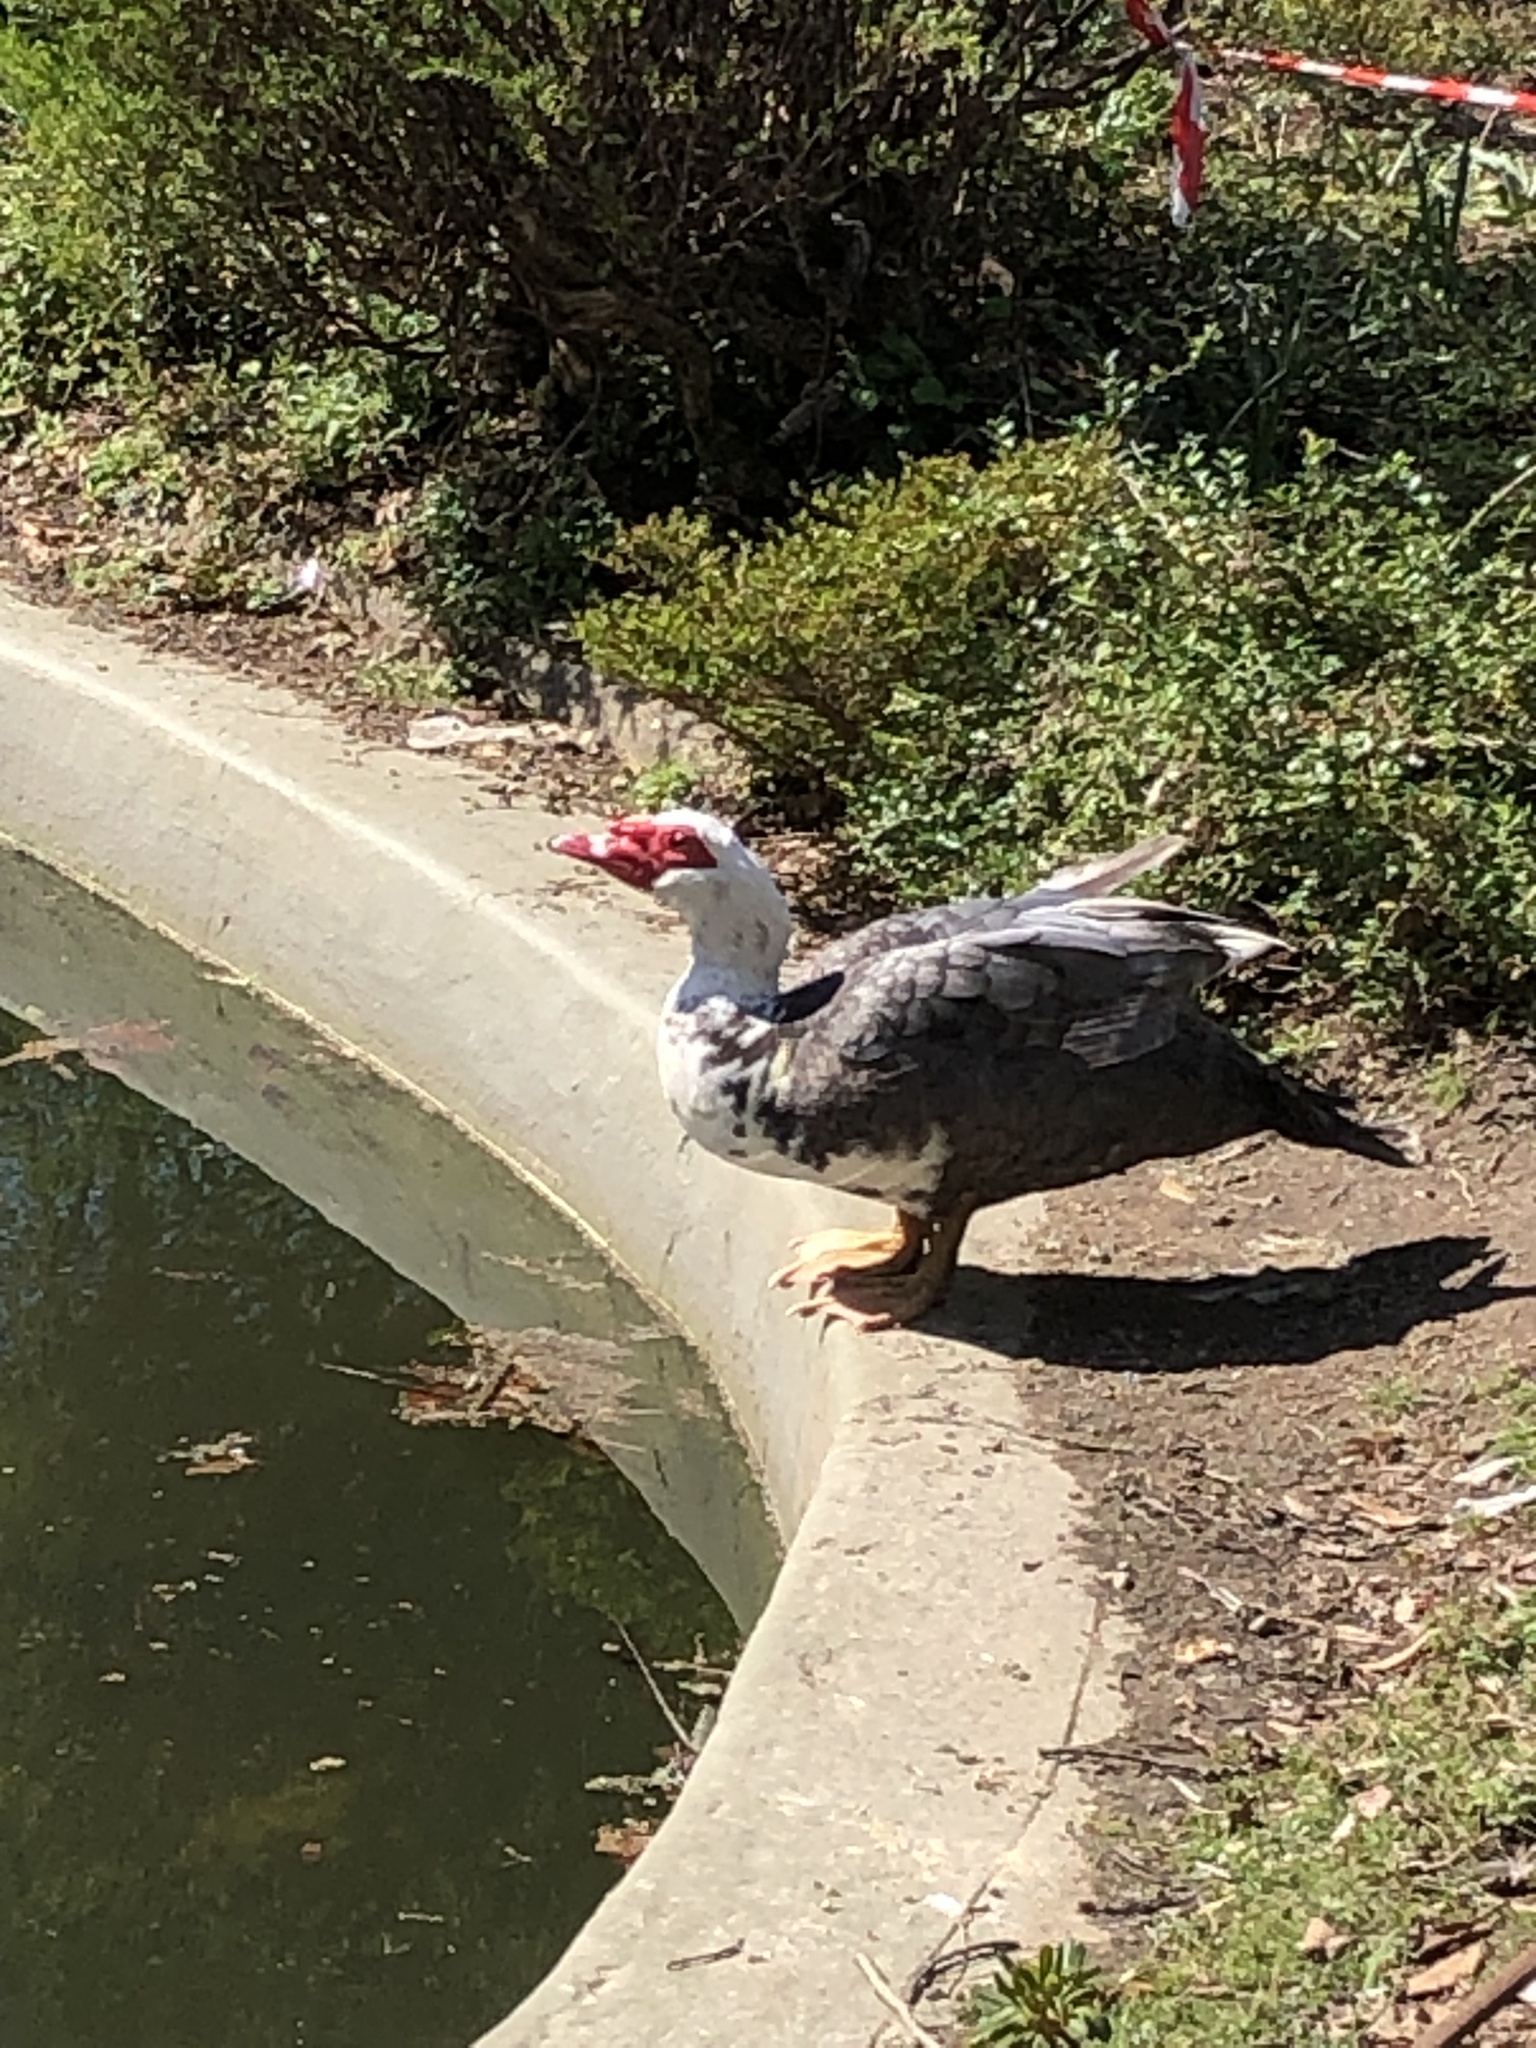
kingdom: Animalia
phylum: Chordata
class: Aves
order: Anseriformes
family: Anatidae
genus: Cairina
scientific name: Cairina moschata
